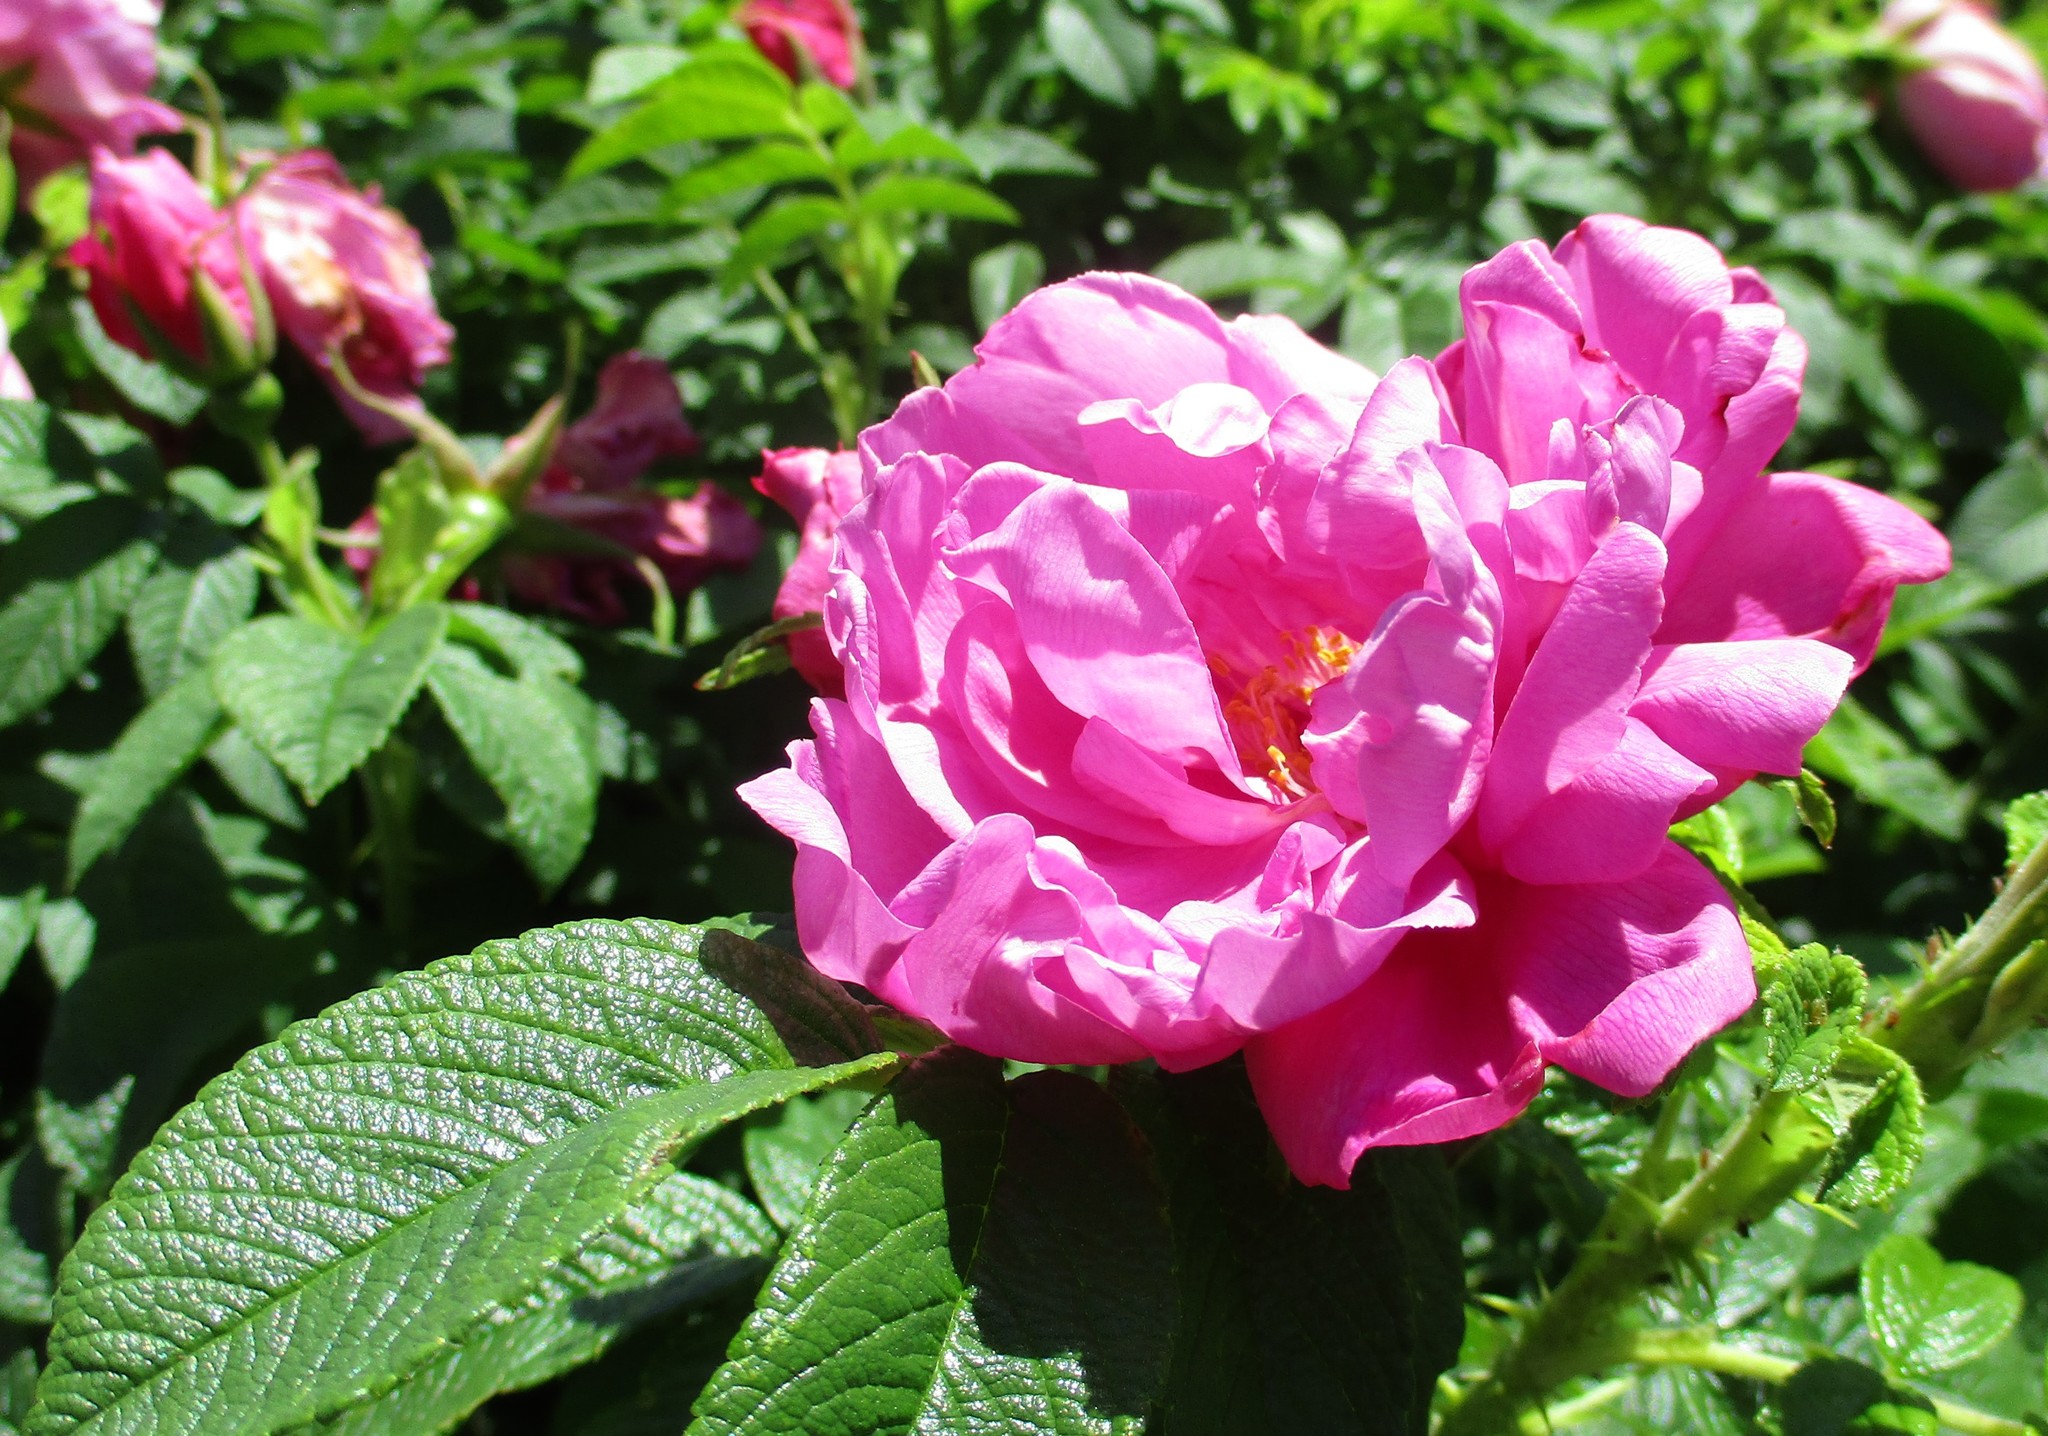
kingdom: Plantae
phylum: Tracheophyta
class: Magnoliopsida
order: Rosales
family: Rosaceae
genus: Rosa
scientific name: Rosa rugosa
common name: Japanese rose
